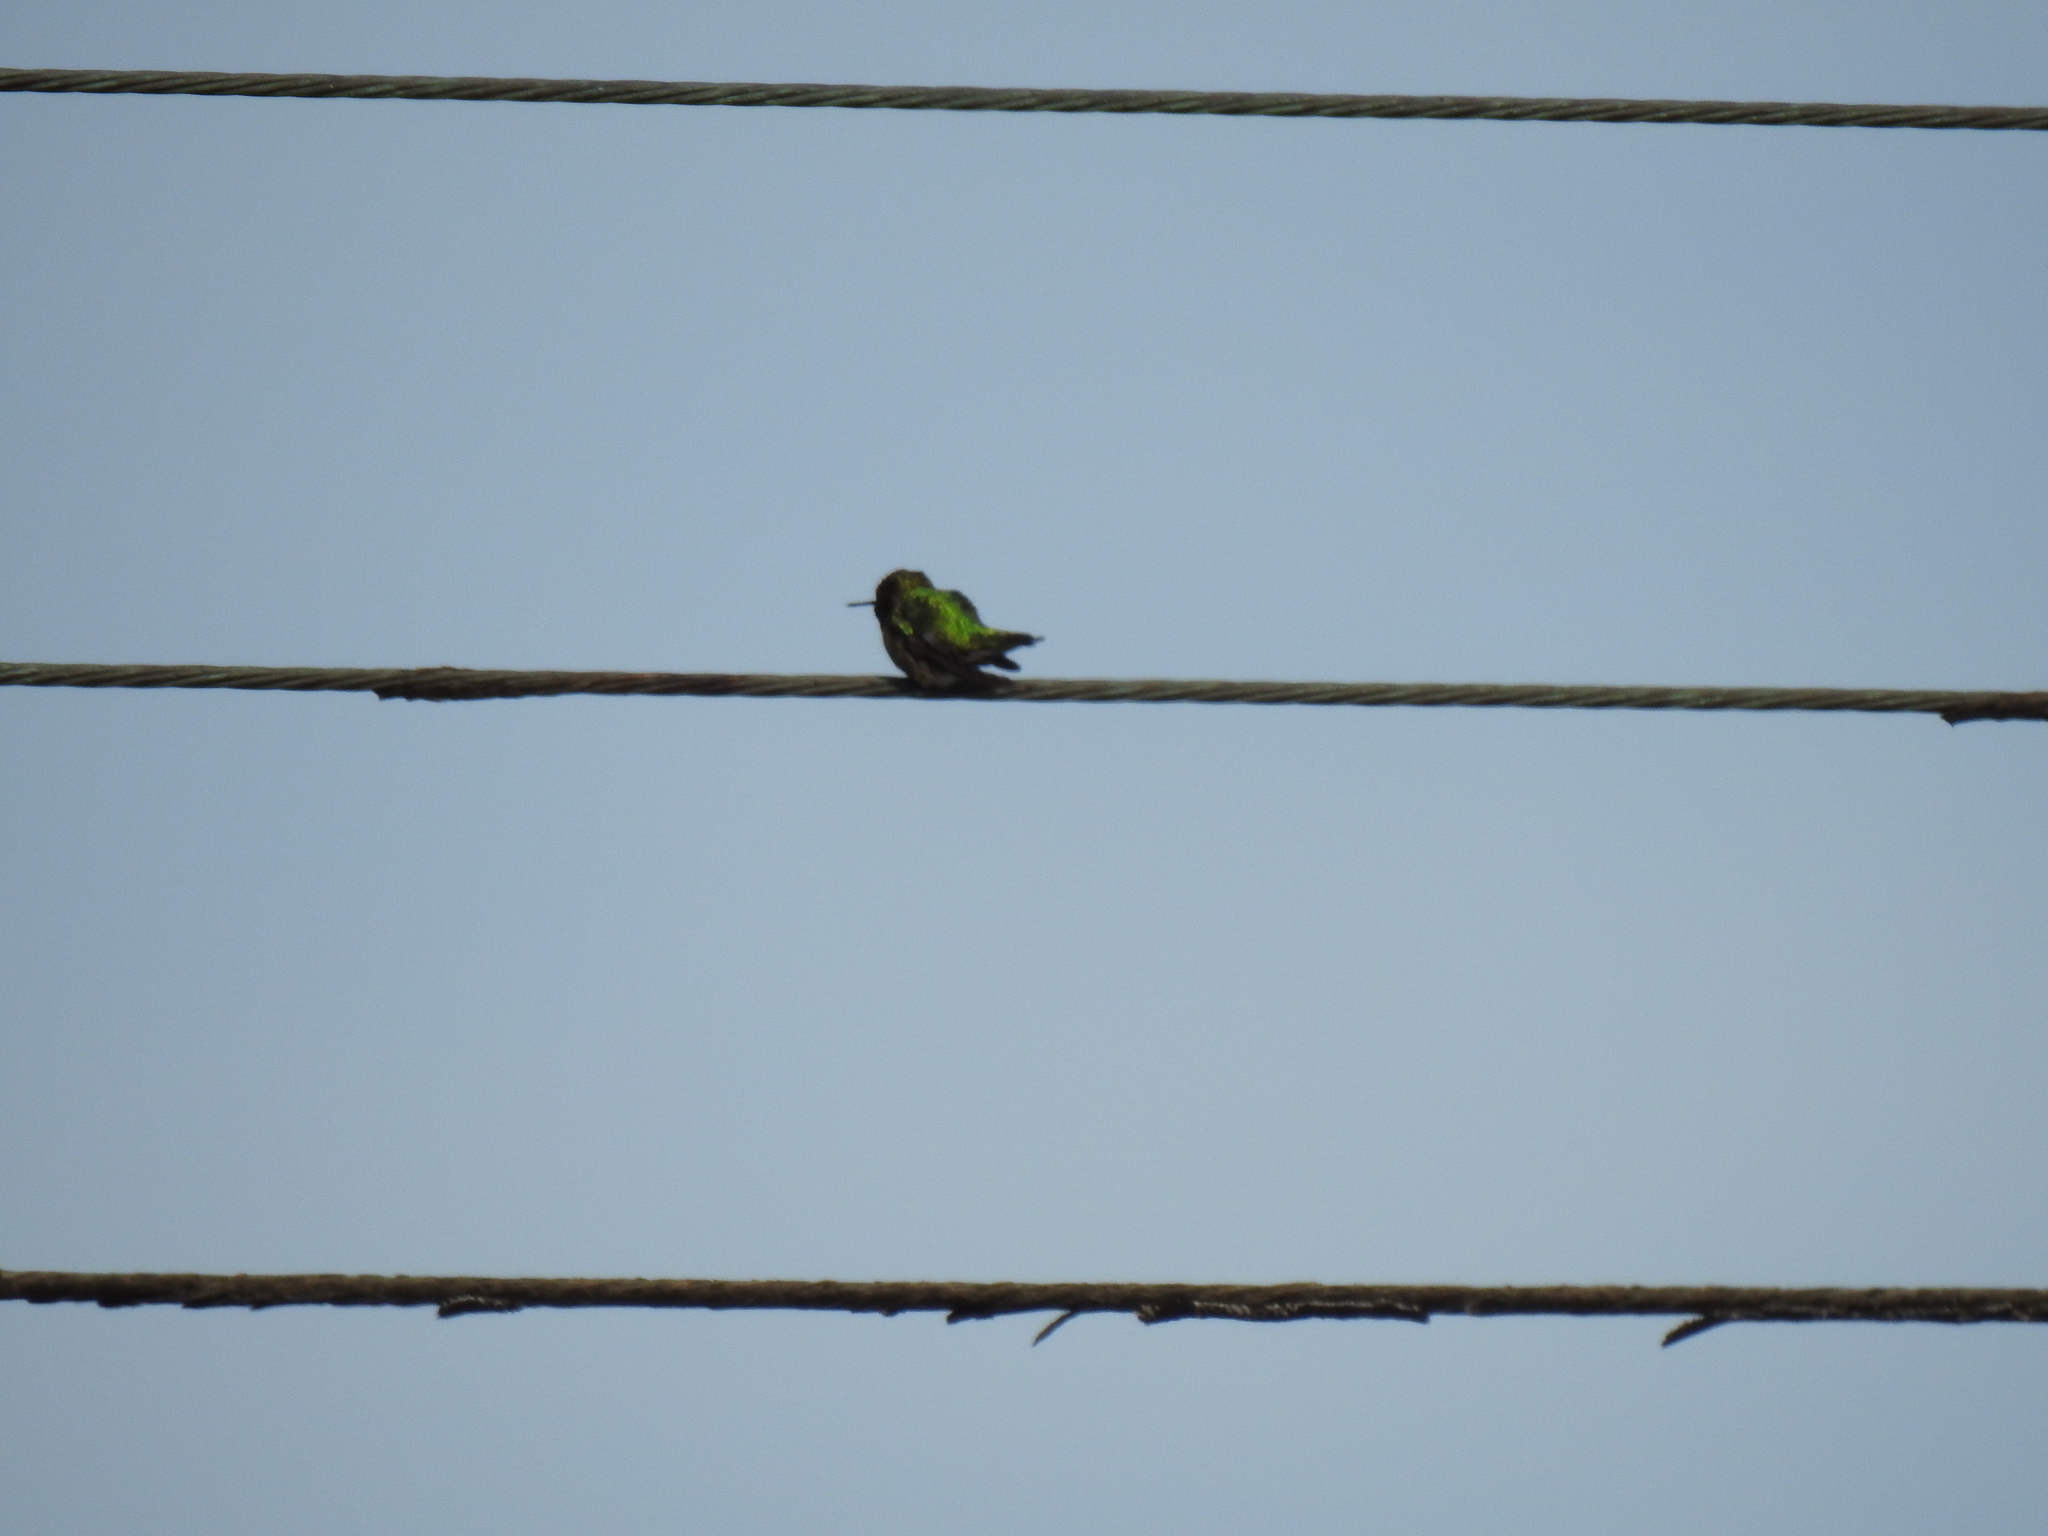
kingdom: Animalia
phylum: Chordata
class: Aves
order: Apodiformes
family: Trochilidae
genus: Calypte
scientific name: Calypte anna
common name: Anna's hummingbird
